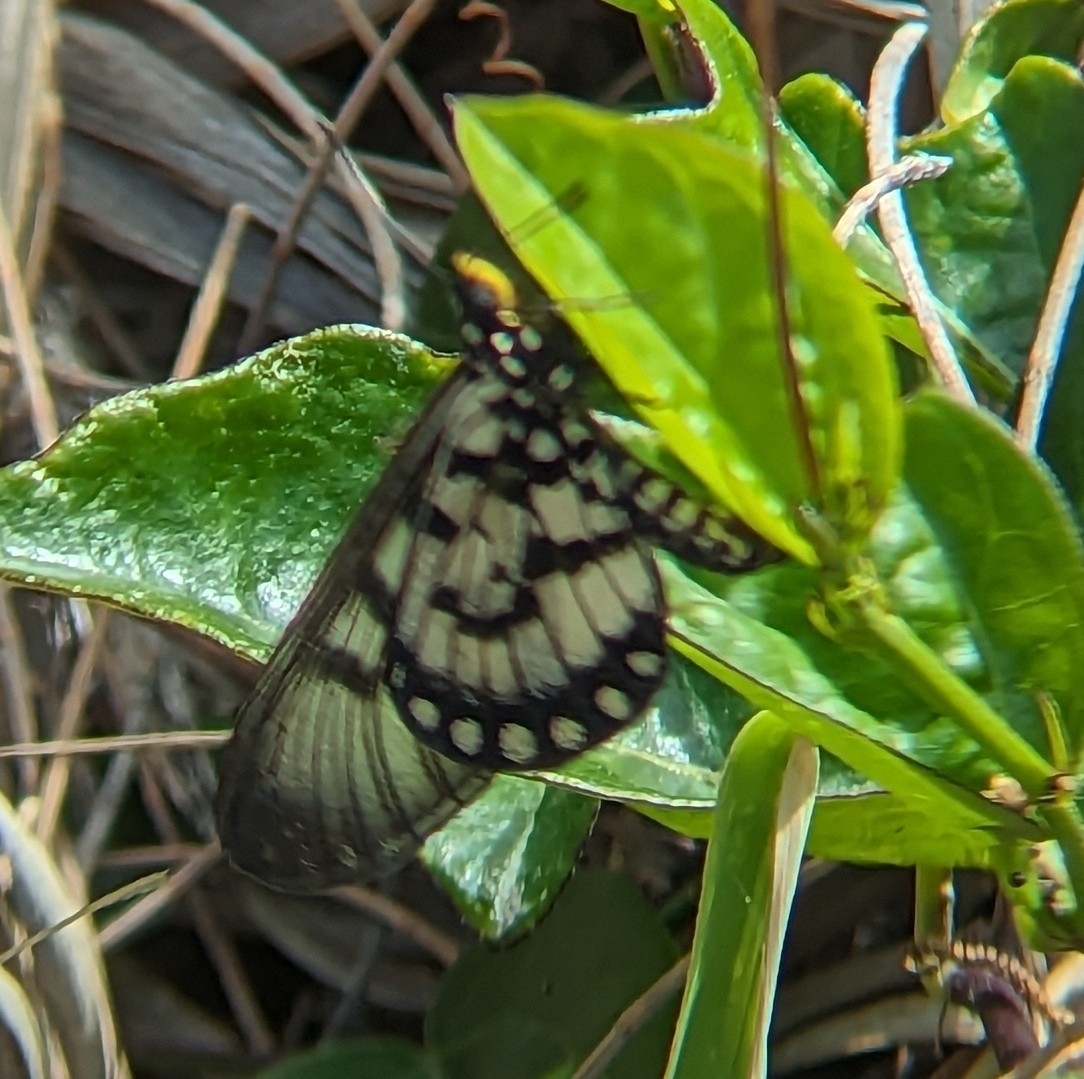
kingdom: Animalia
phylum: Arthropoda
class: Insecta
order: Lepidoptera
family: Nymphalidae
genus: Acraea
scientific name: Acraea andromacha
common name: Glasswing
